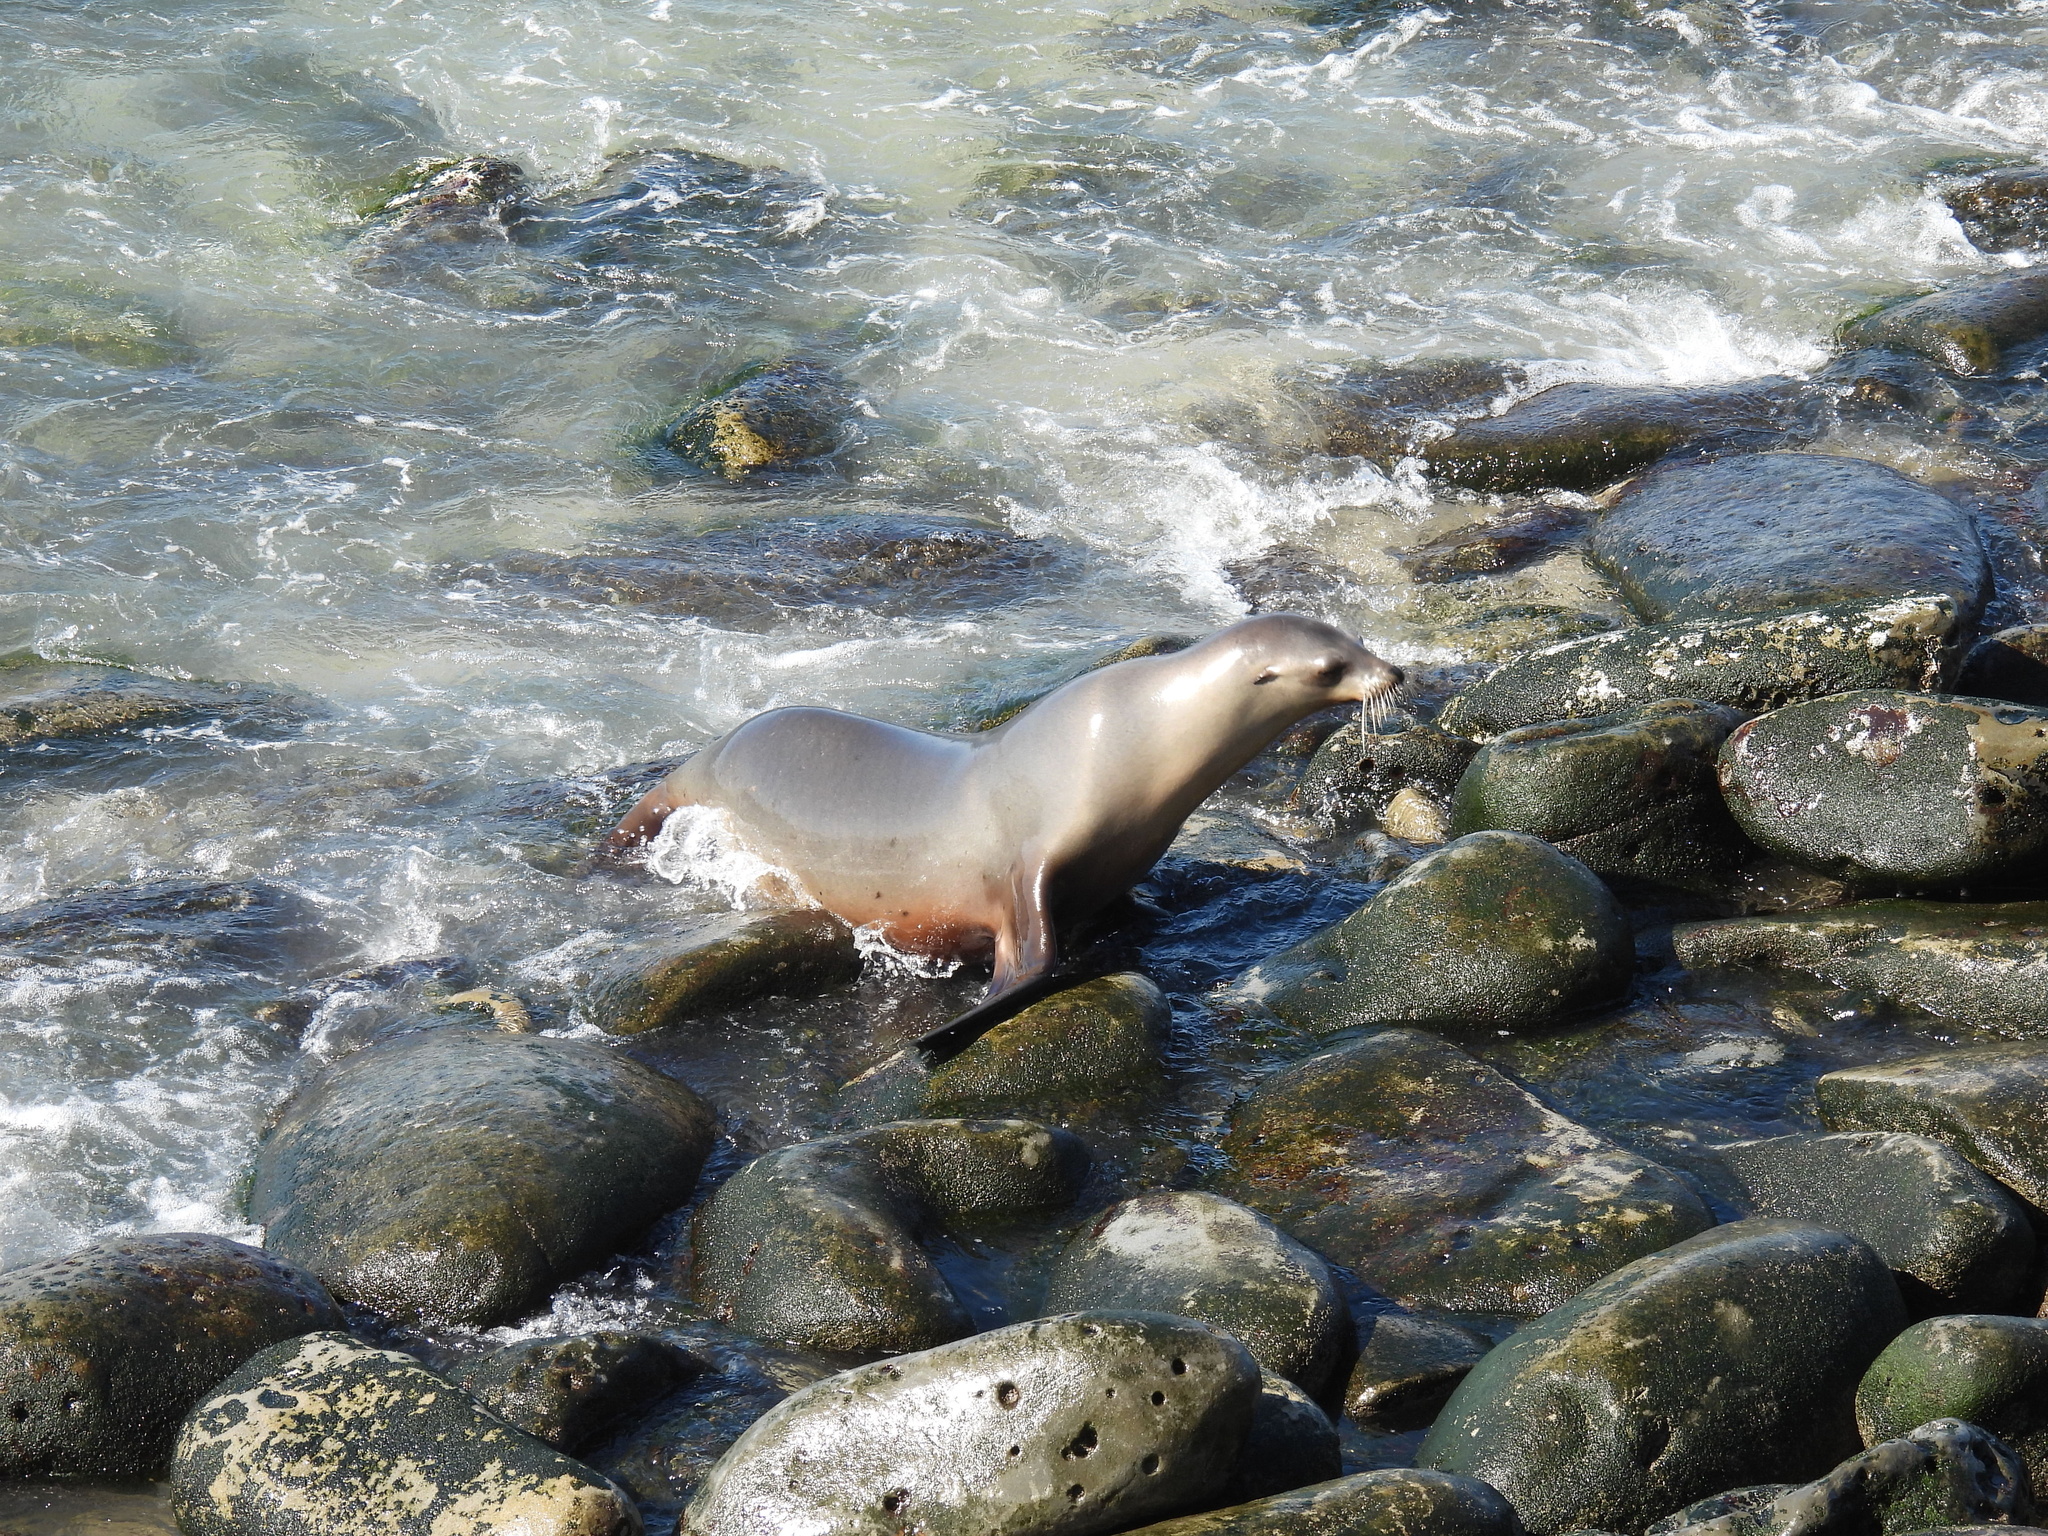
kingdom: Animalia
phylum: Chordata
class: Mammalia
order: Carnivora
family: Otariidae
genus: Zalophus
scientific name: Zalophus californianus
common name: California sea lion
